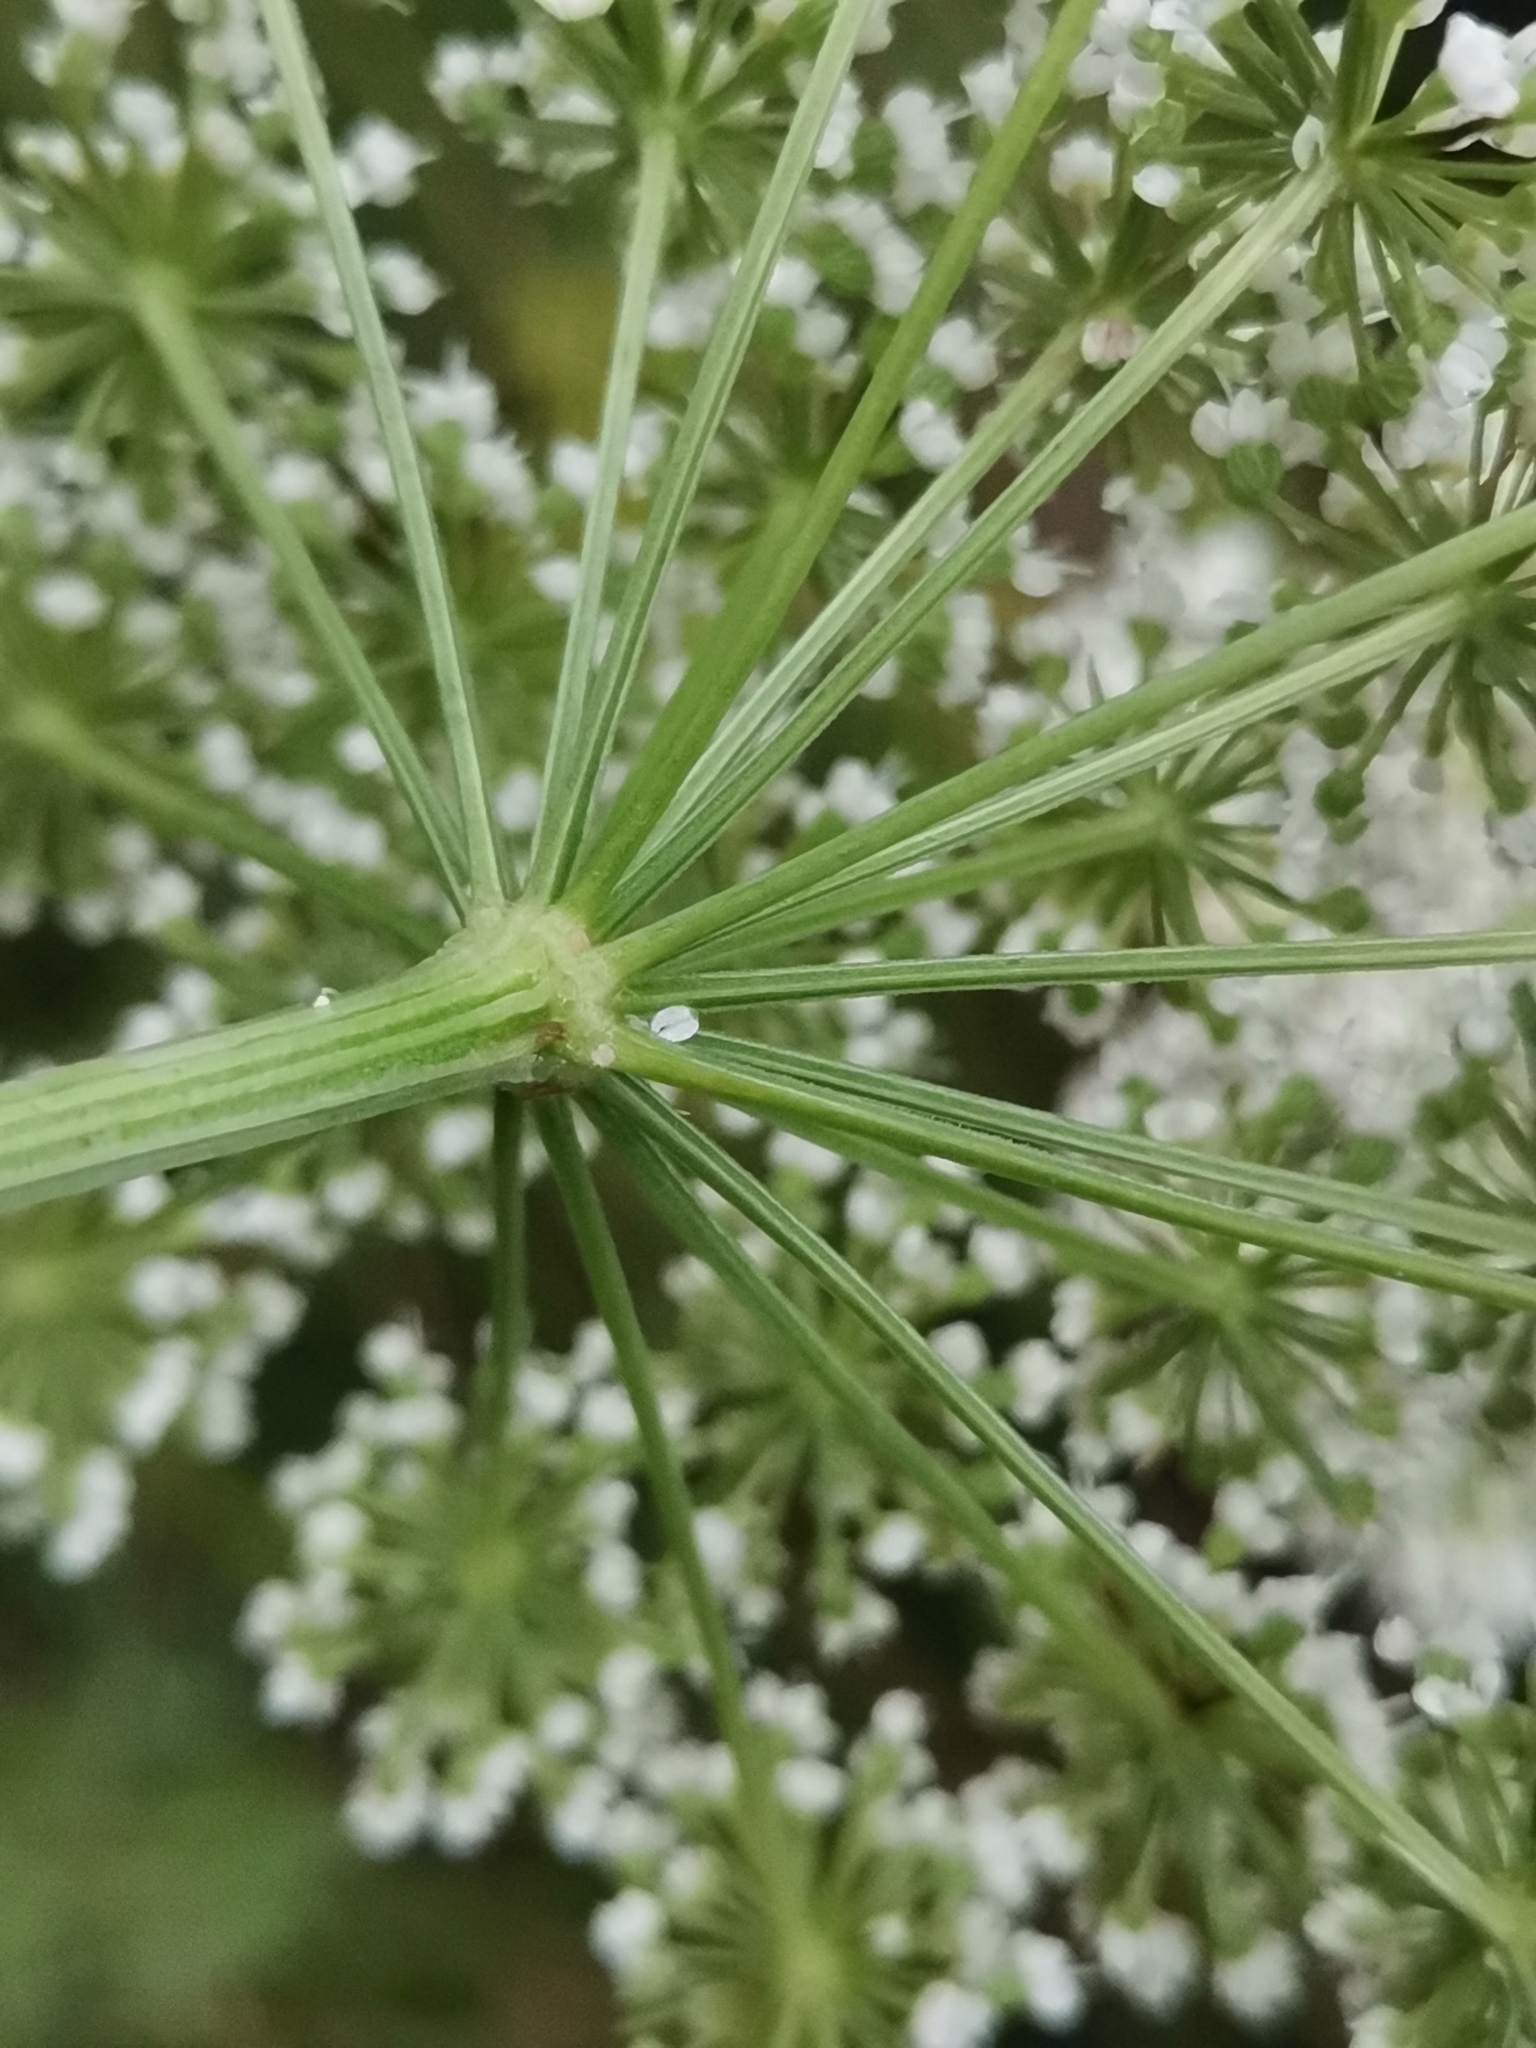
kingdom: Plantae
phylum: Tracheophyta
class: Magnoliopsida
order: Apiales
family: Apiaceae
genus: Selinum
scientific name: Selinum carvifolia
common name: Cambridge milk-parsley
